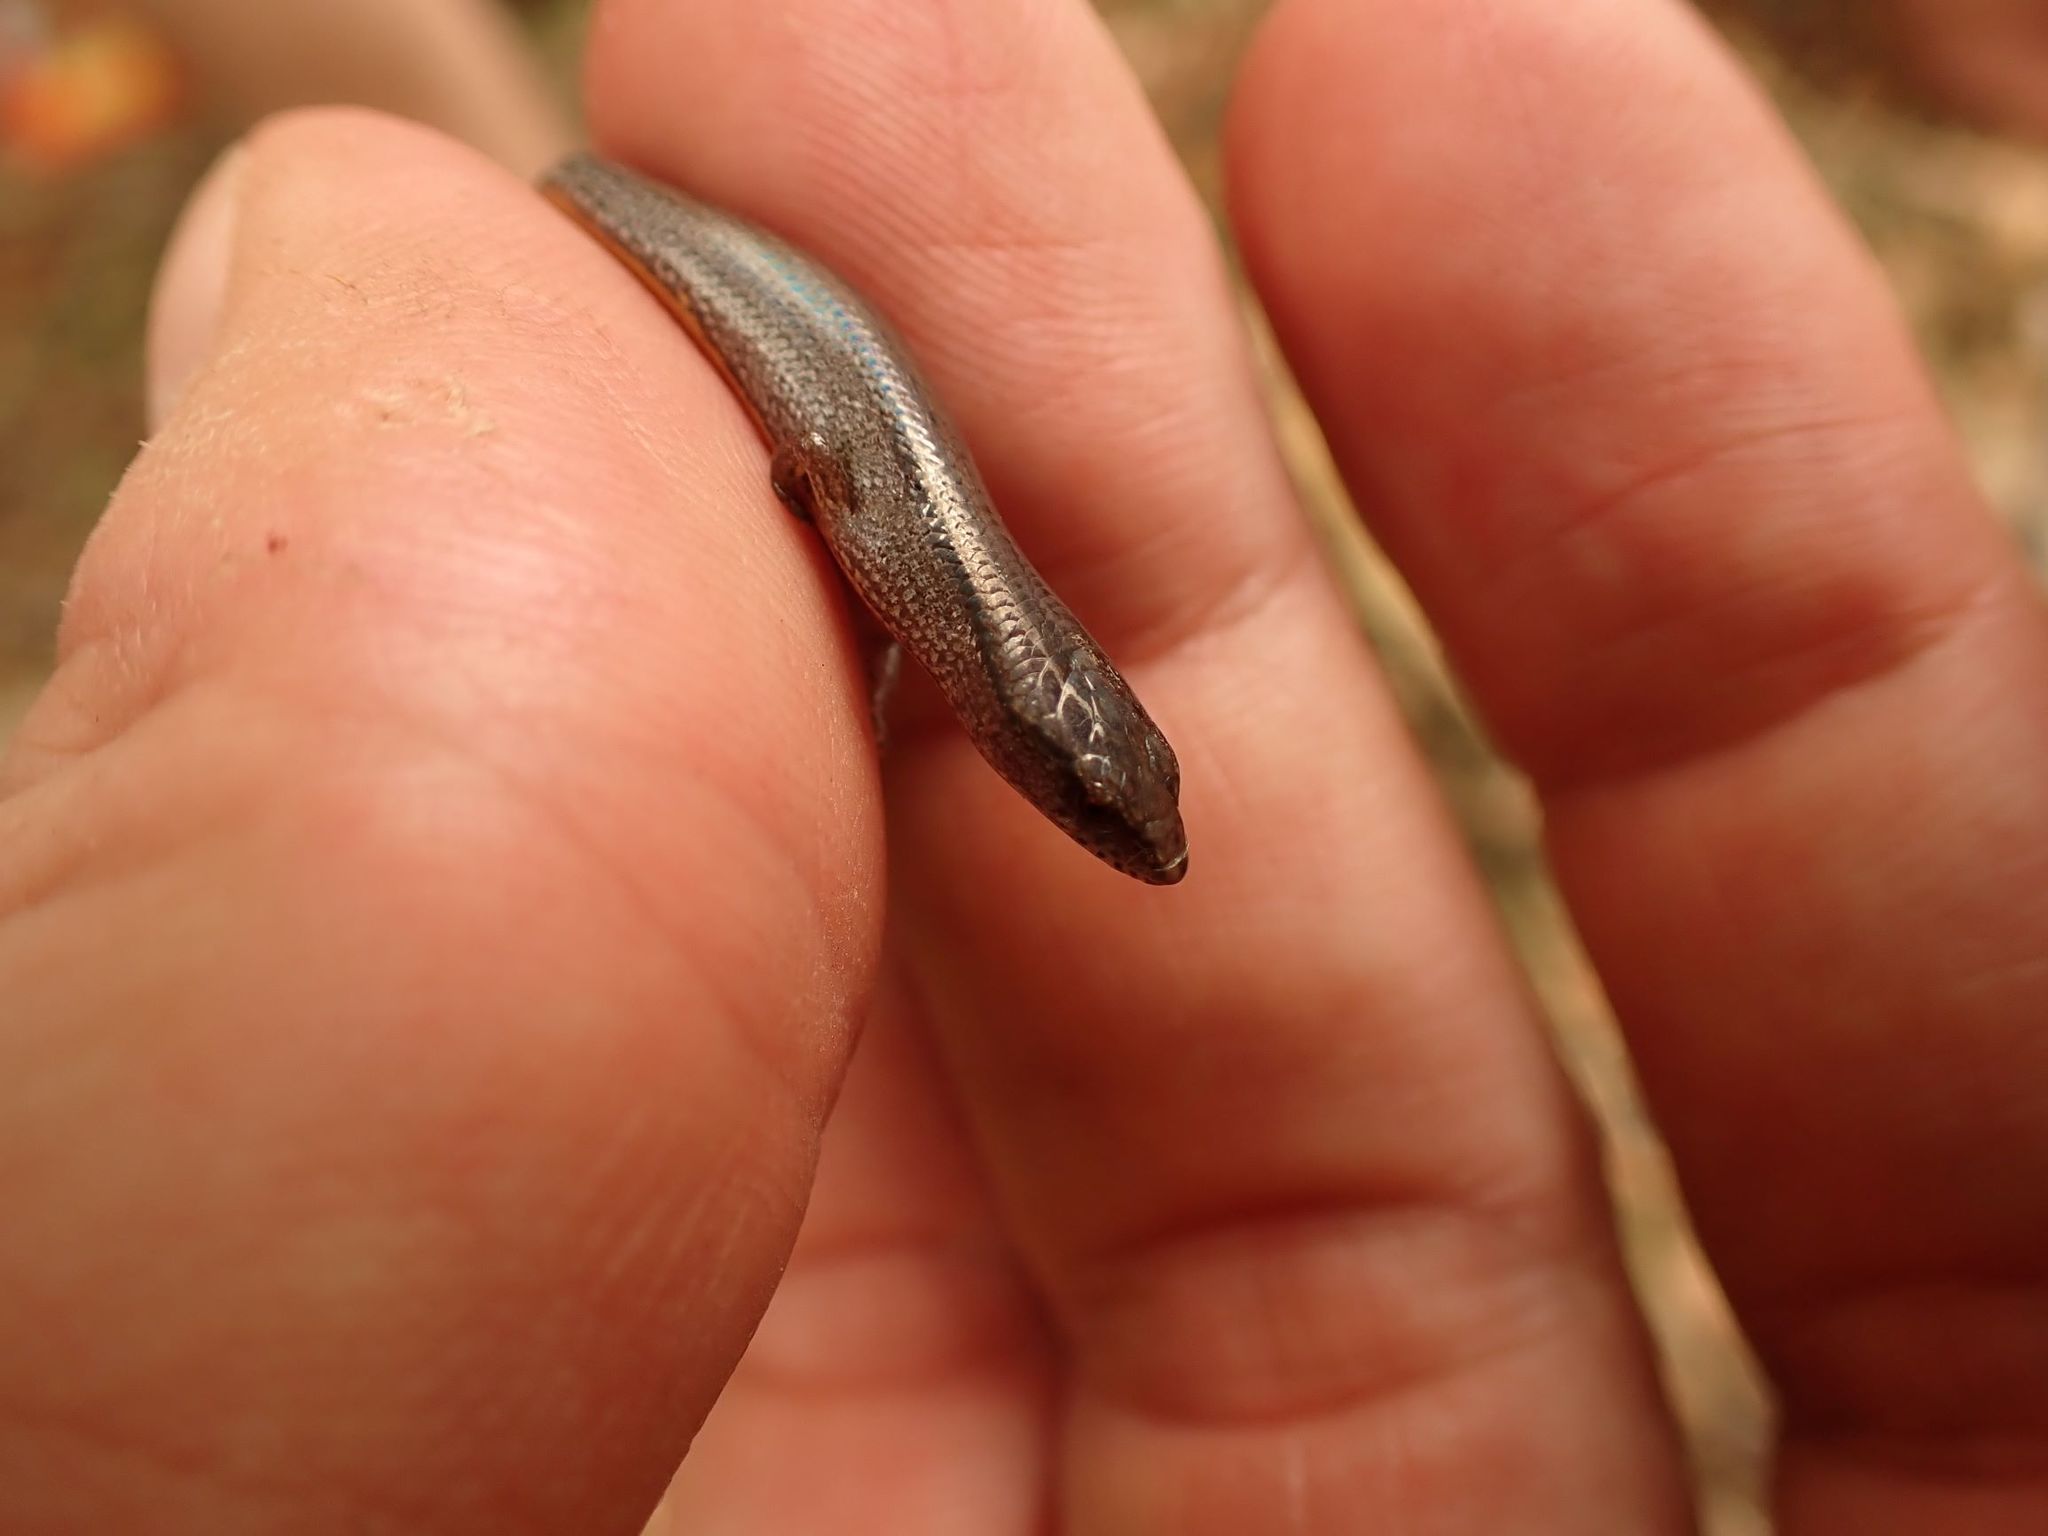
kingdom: Animalia
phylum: Chordata
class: Squamata
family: Scincidae
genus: Anepischetosia
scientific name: Anepischetosia maccoyi
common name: Highlands forest-skink
